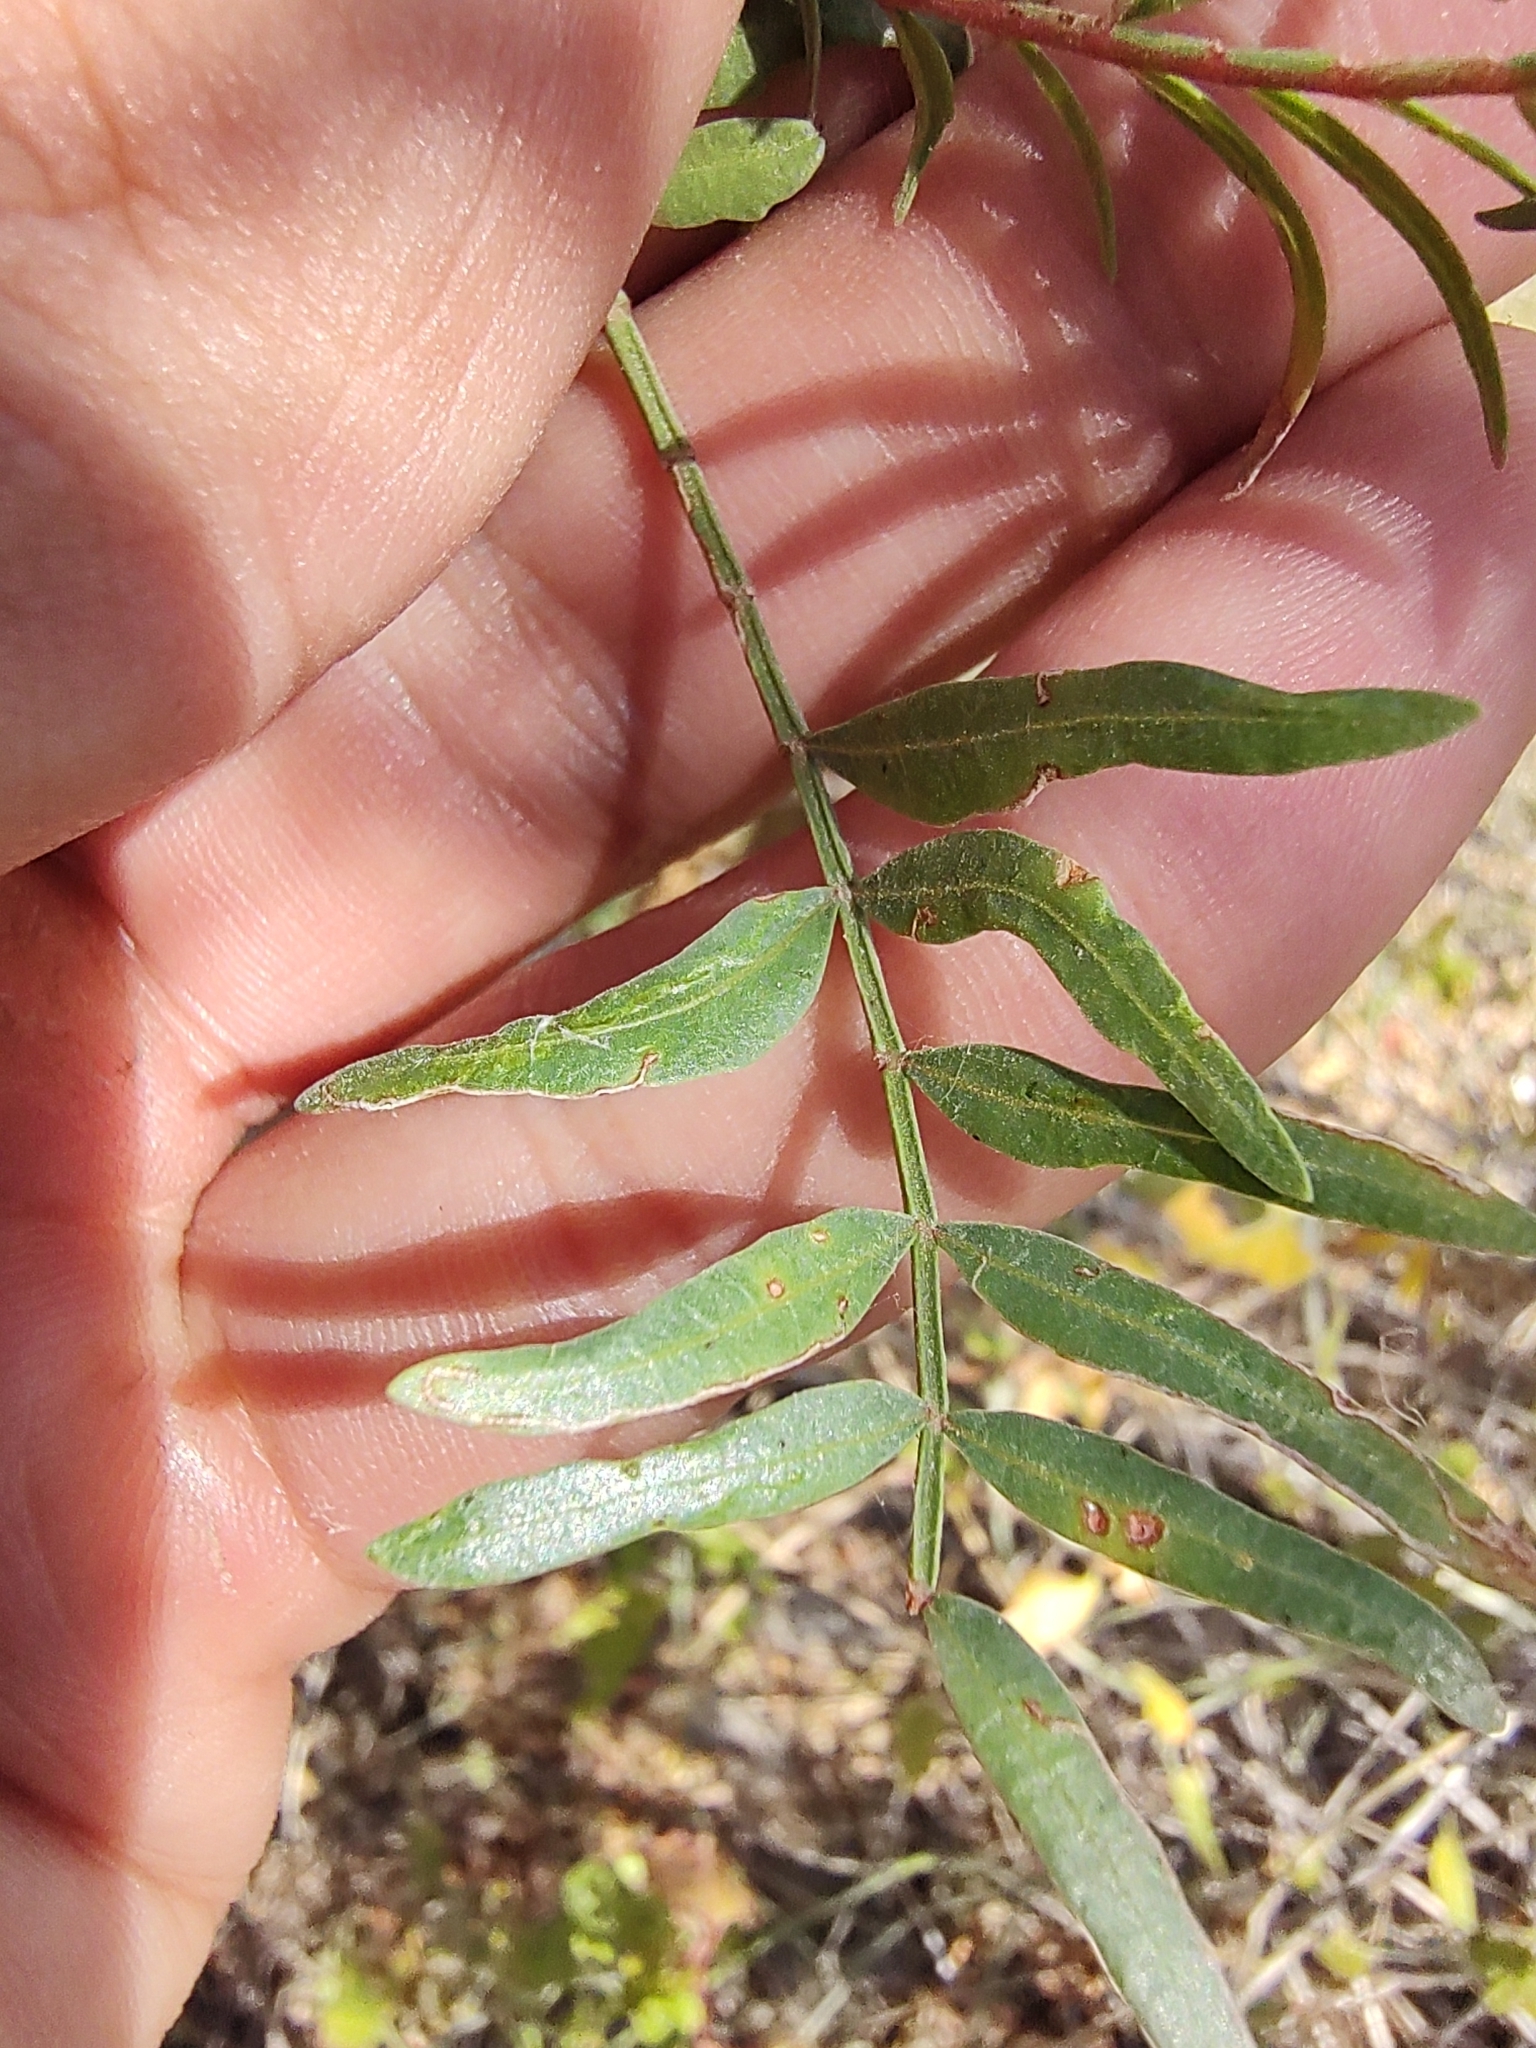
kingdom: Plantae
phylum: Tracheophyta
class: Magnoliopsida
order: Sapindales
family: Burseraceae
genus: Bursera
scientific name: Bursera microphylla
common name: Elephant tree
